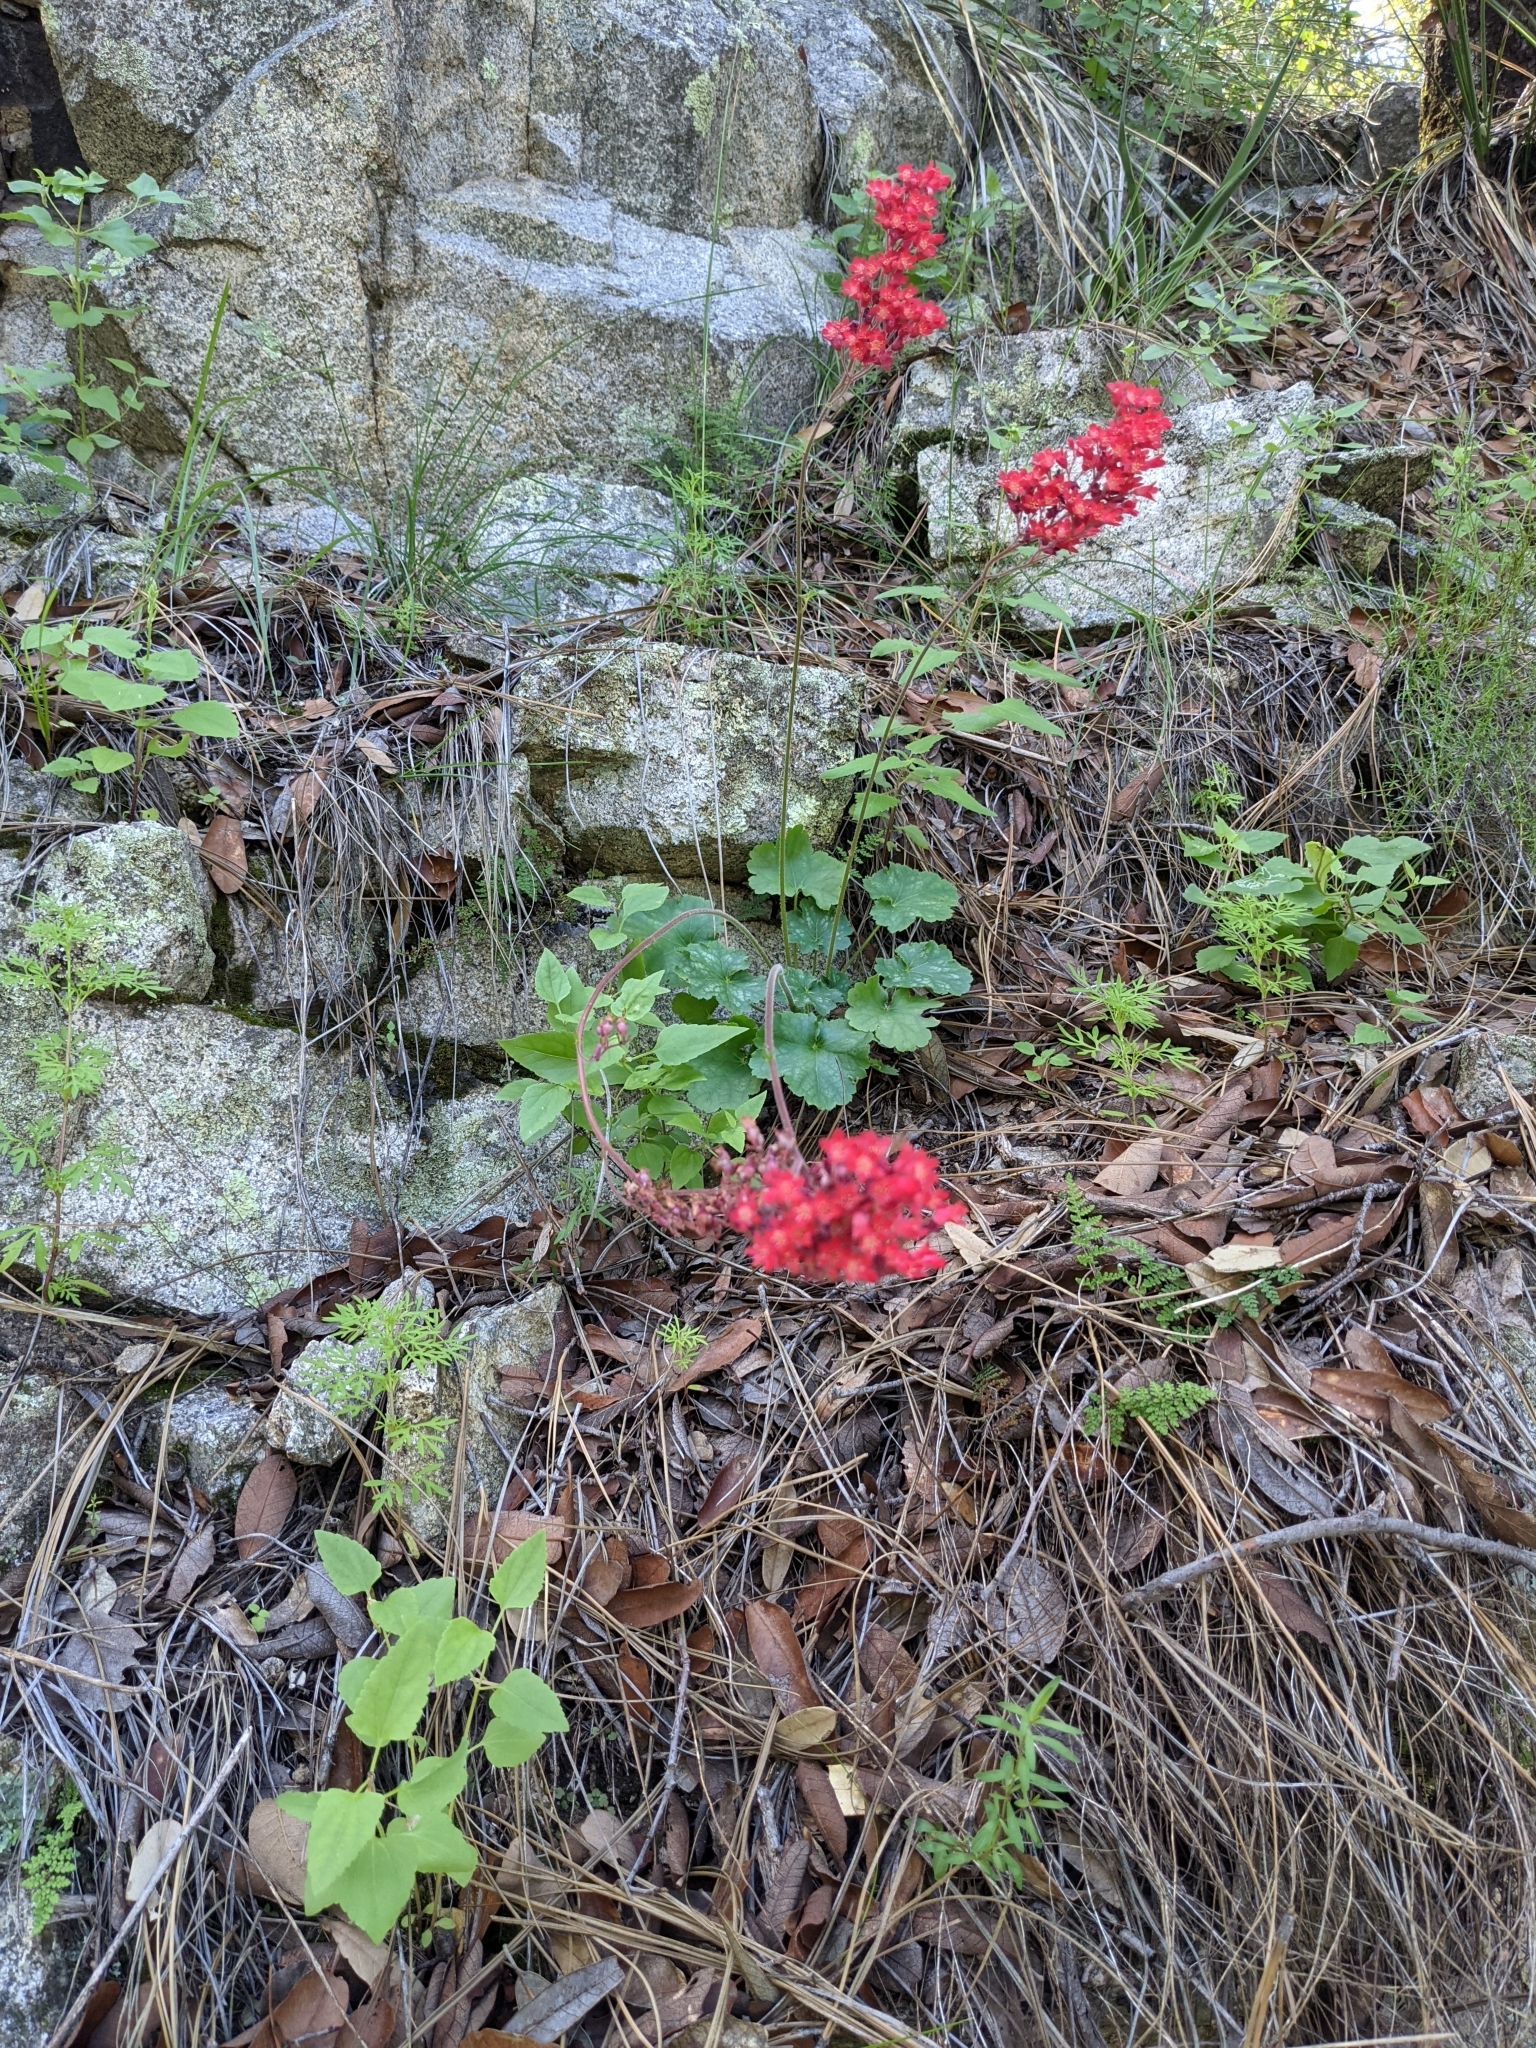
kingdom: Plantae
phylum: Tracheophyta
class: Magnoliopsida
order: Saxifragales
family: Saxifragaceae
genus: Heuchera
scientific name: Heuchera sanguinea
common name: Coralbells
